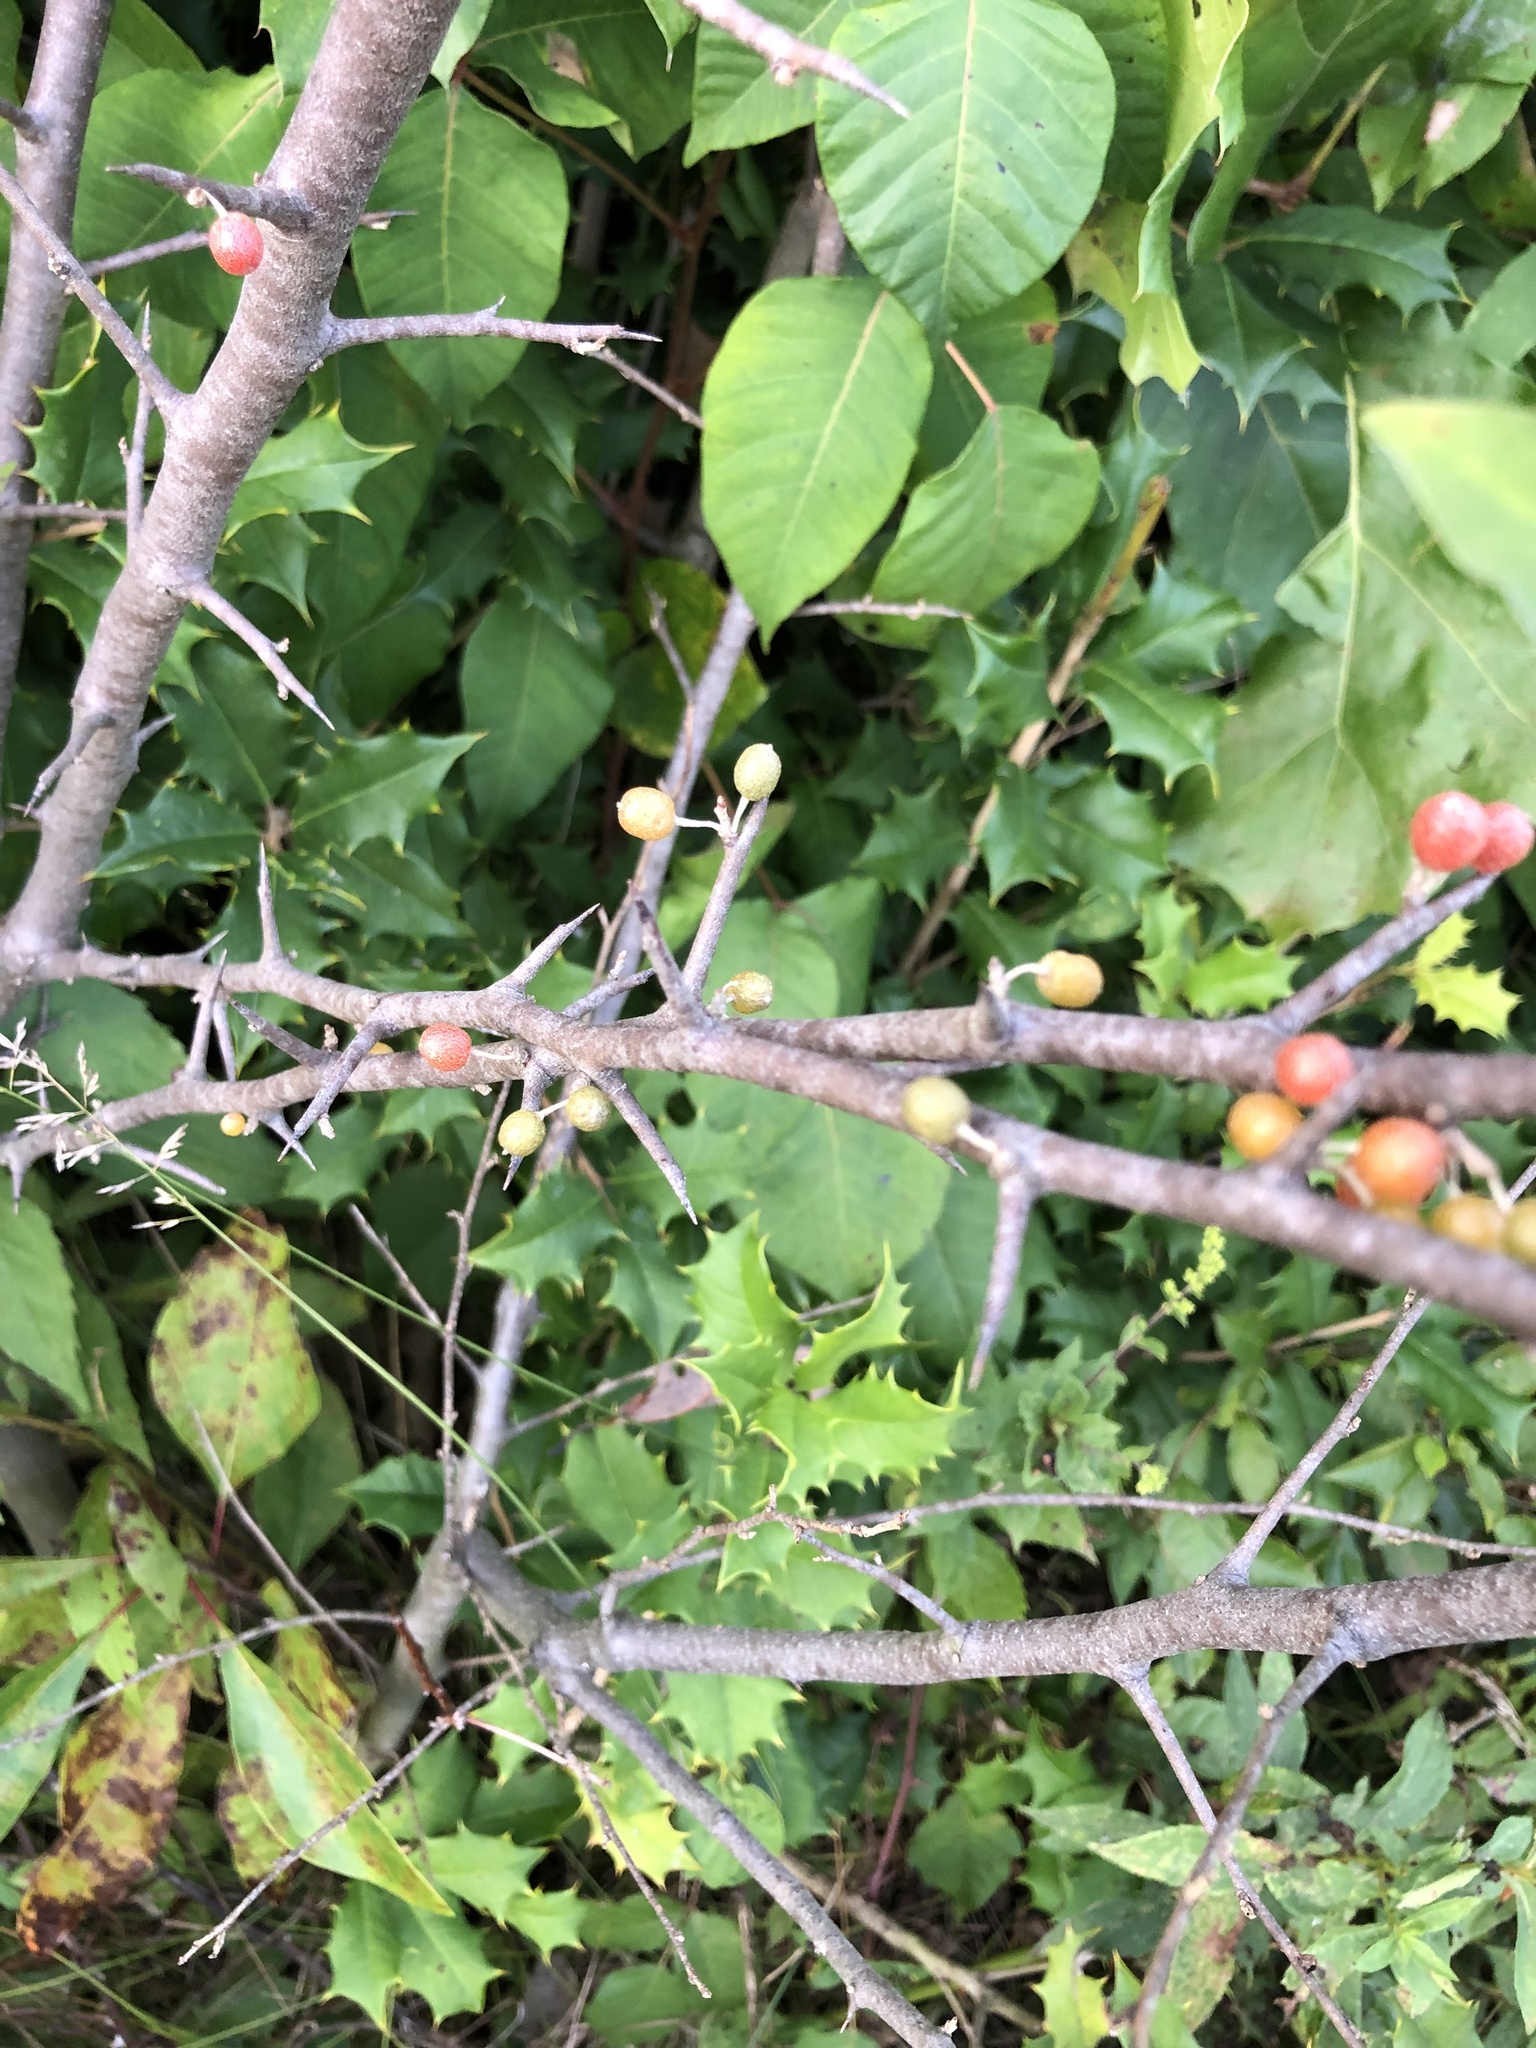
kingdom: Plantae
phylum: Tracheophyta
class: Magnoliopsida
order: Rosales
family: Elaeagnaceae
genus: Elaeagnus
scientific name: Elaeagnus umbellata
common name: Autumn olive
